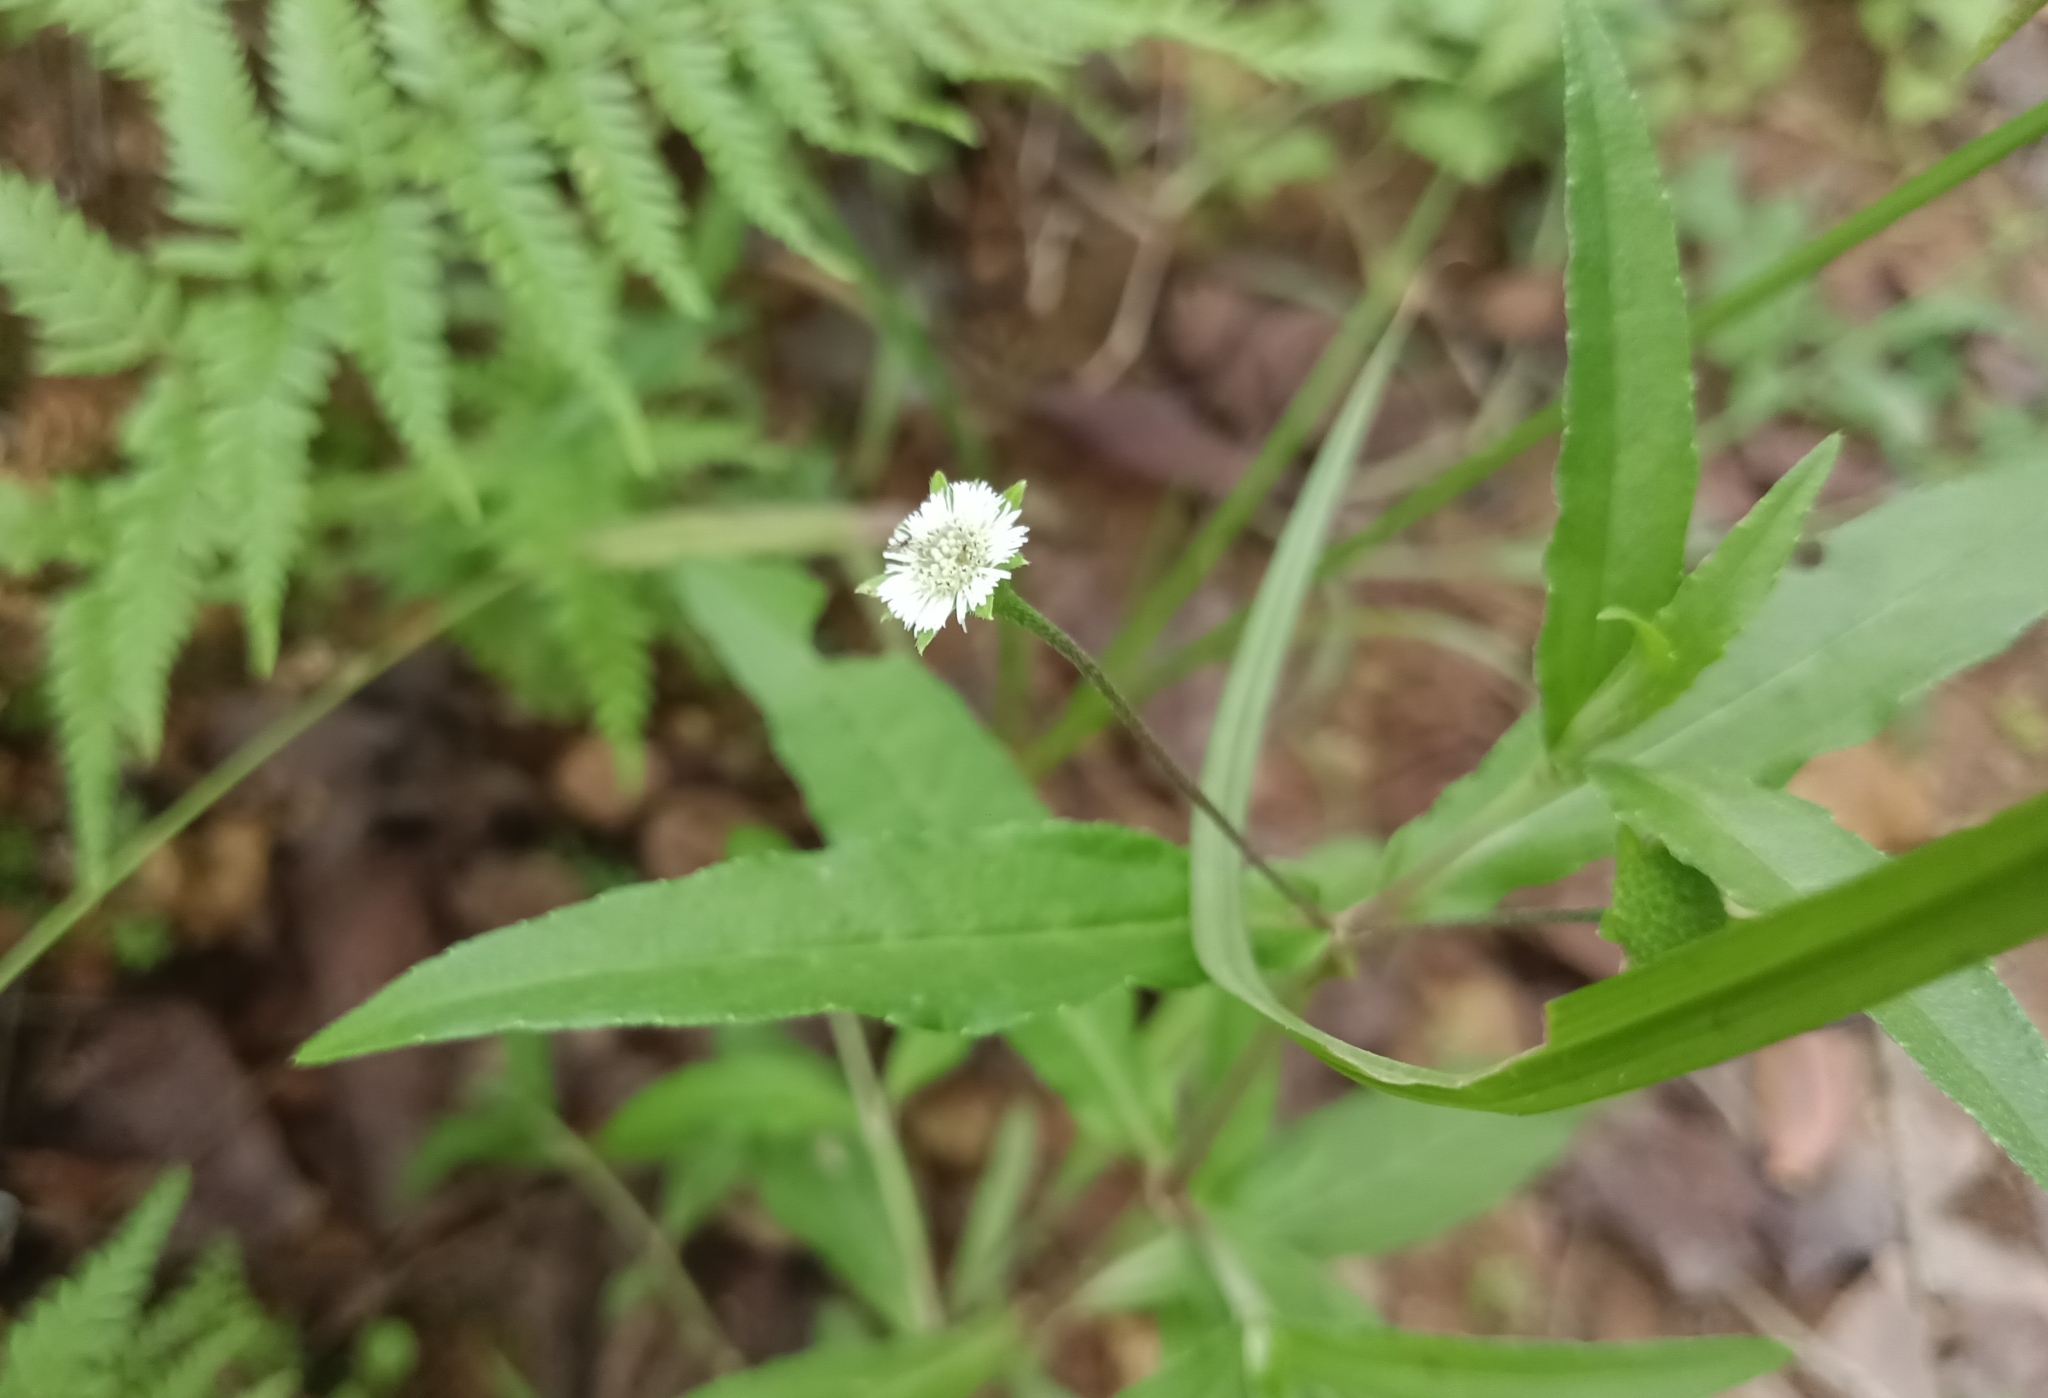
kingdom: Plantae
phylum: Tracheophyta
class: Magnoliopsida
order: Asterales
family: Asteraceae
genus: Eclipta
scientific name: Eclipta prostrata
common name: False daisy
